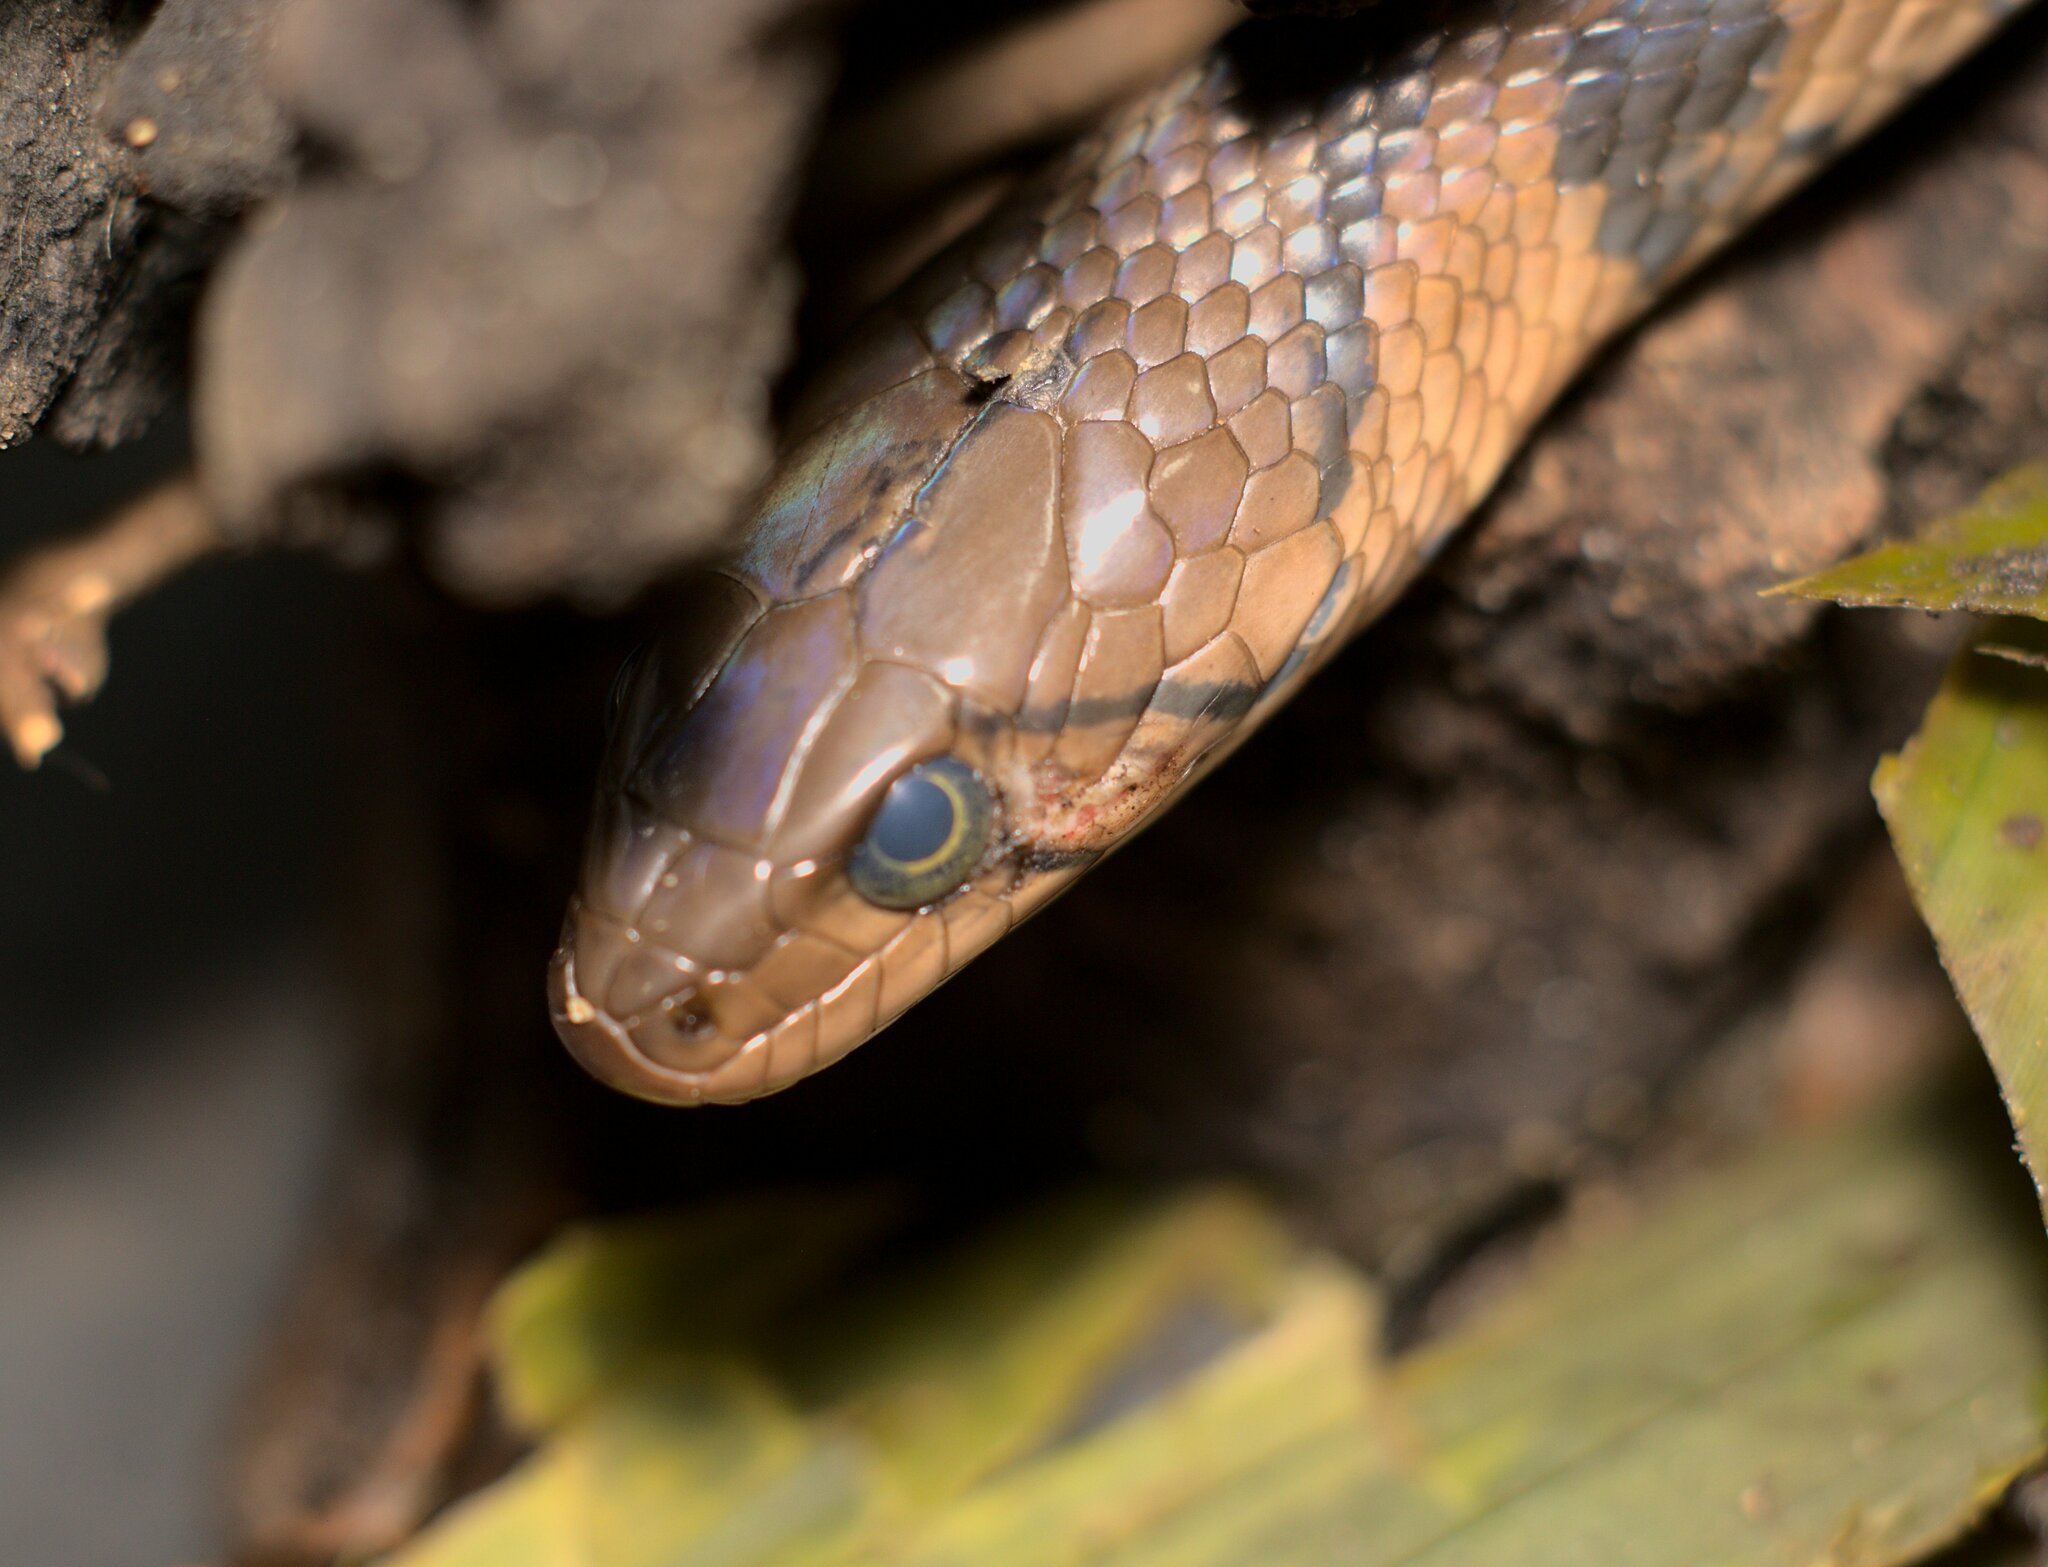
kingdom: Animalia
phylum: Chordata
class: Squamata
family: Colubridae
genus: Fowlea
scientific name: Fowlea flavipunctatus
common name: Yellow-spotted keelback
